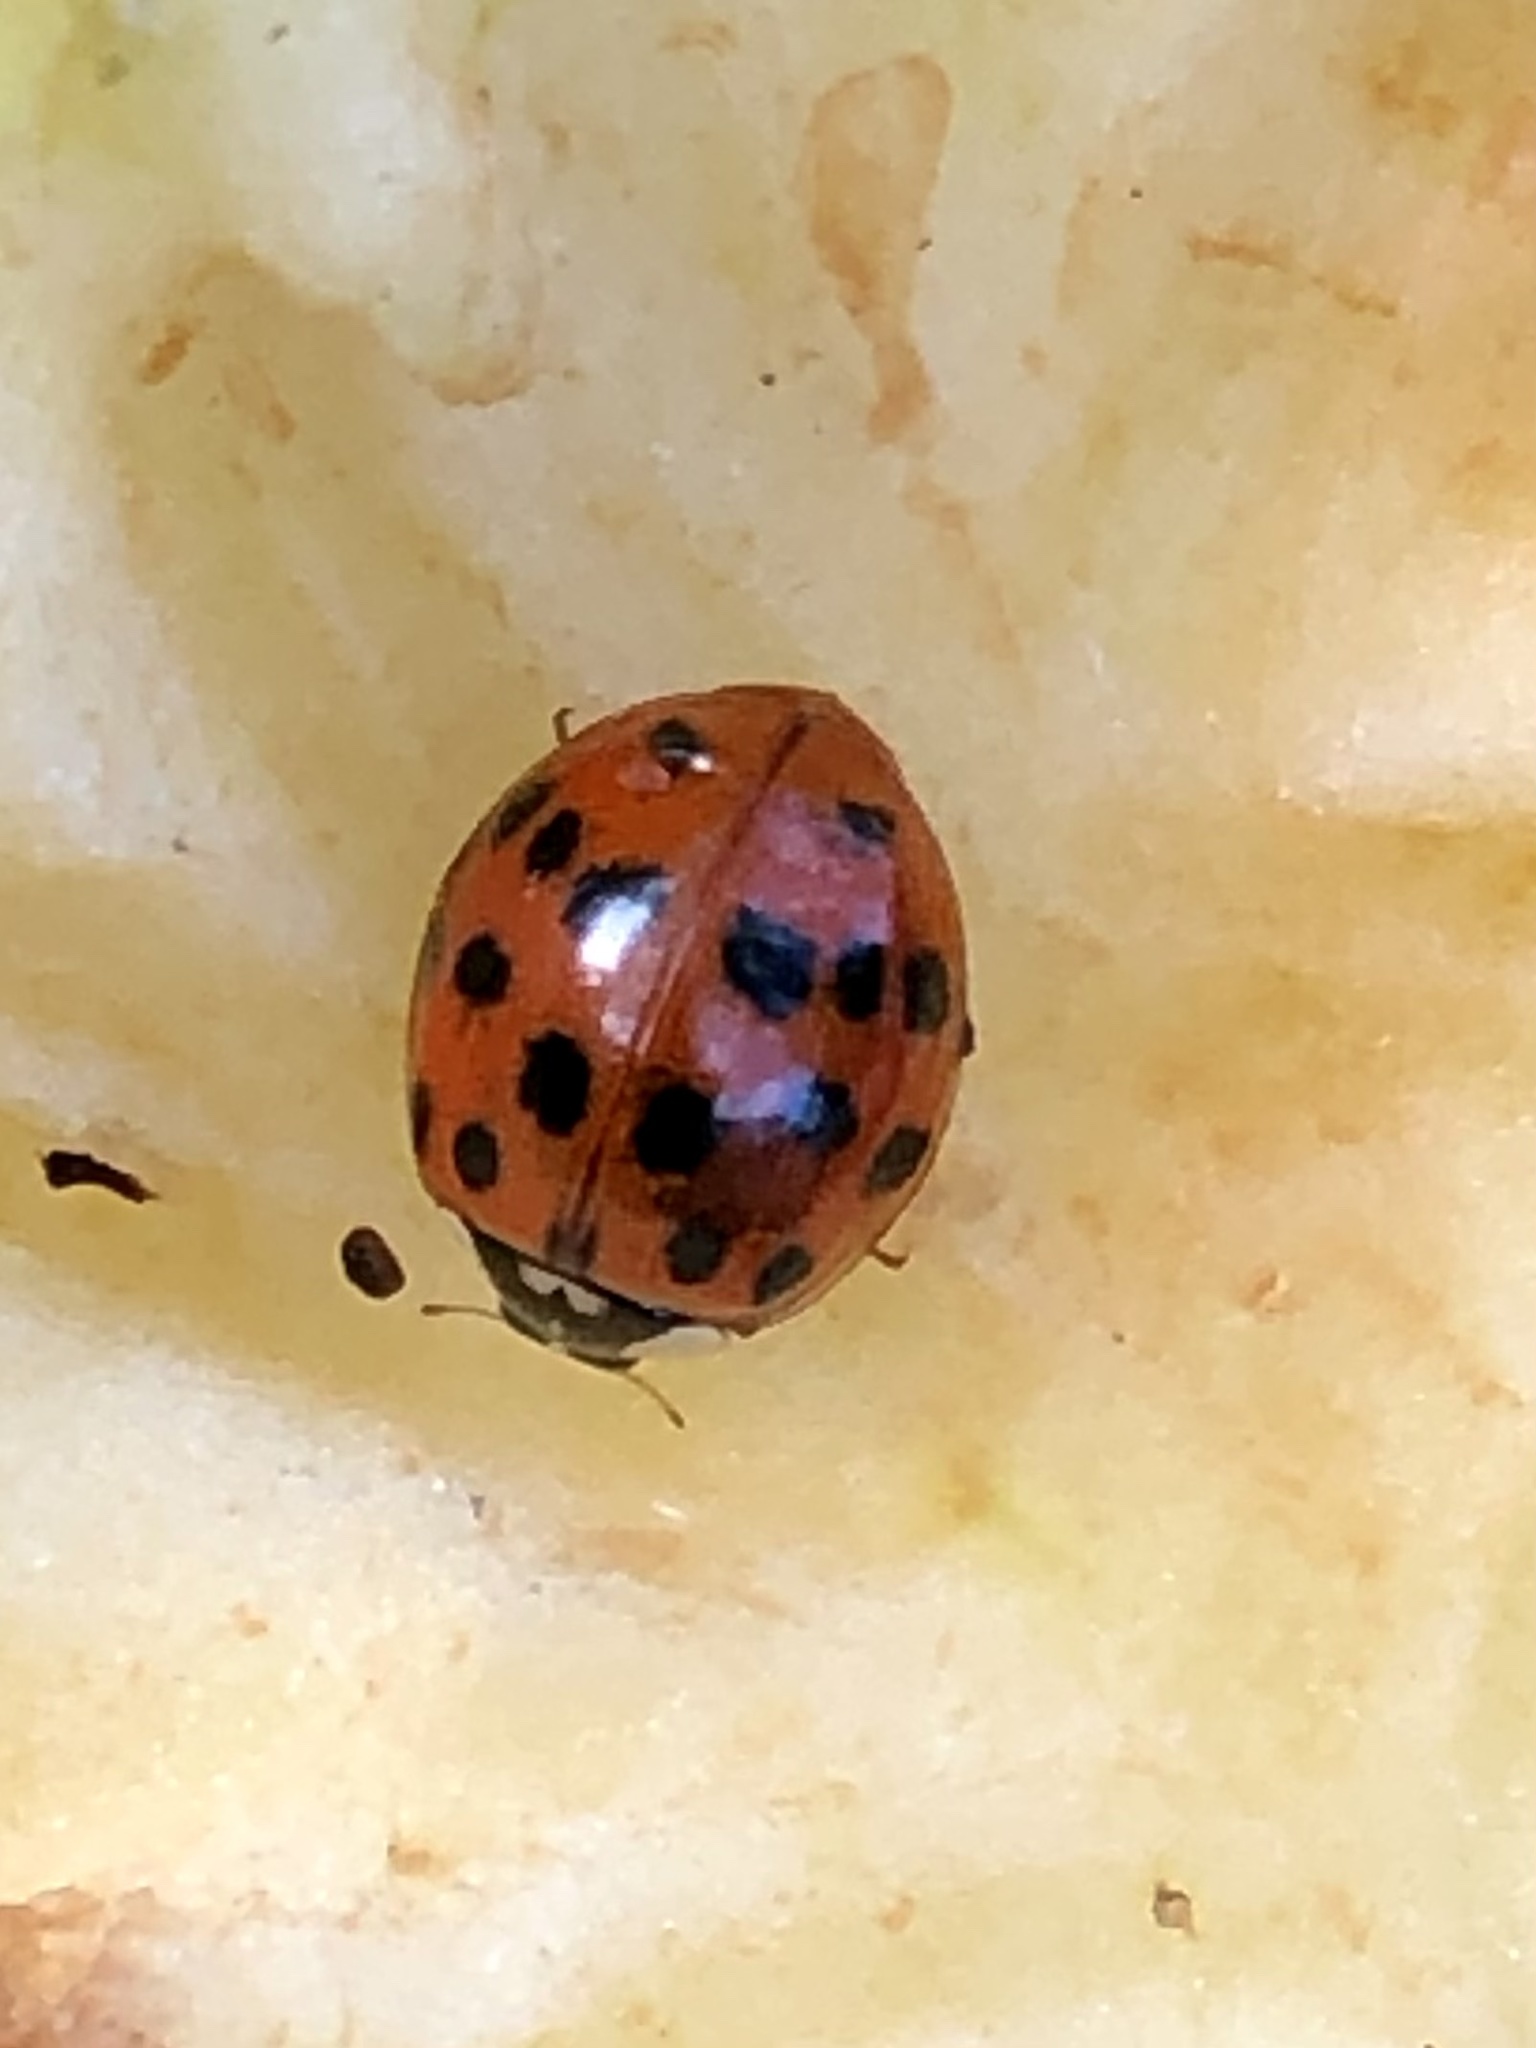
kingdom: Animalia
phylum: Arthropoda
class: Insecta
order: Coleoptera
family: Coccinellidae
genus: Harmonia
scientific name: Harmonia axyridis
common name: Harlequin ladybird
